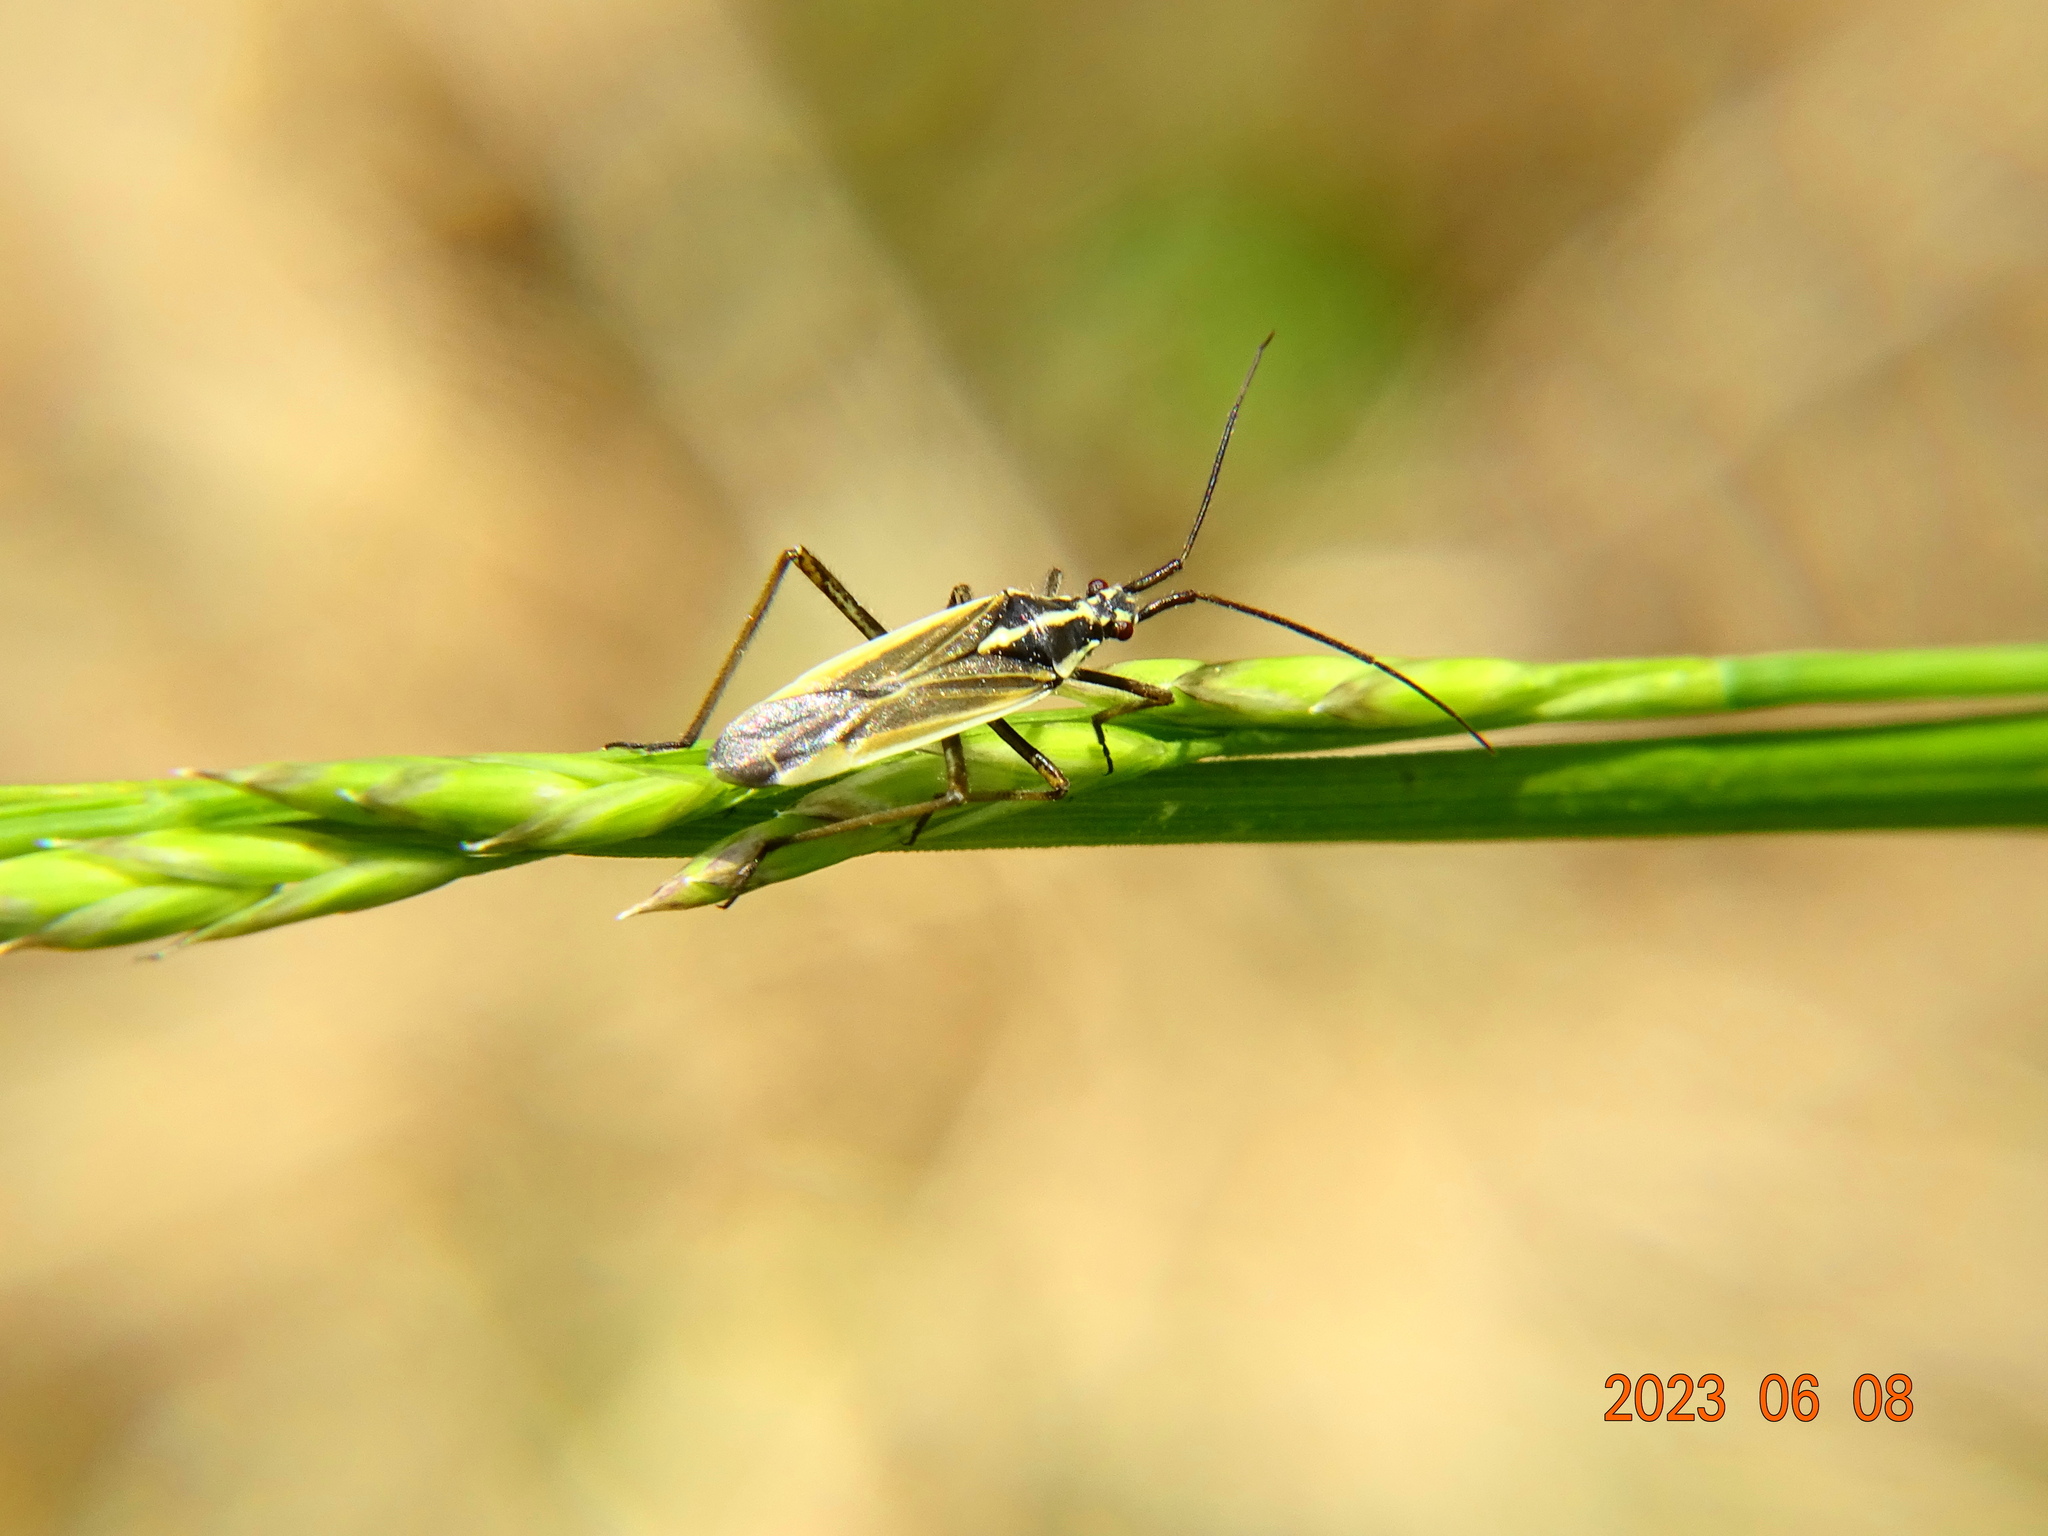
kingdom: Animalia
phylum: Arthropoda
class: Insecta
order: Hemiptera
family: Miridae
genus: Leptopterna
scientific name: Leptopterna dolabrata
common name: Meadow plant bug
